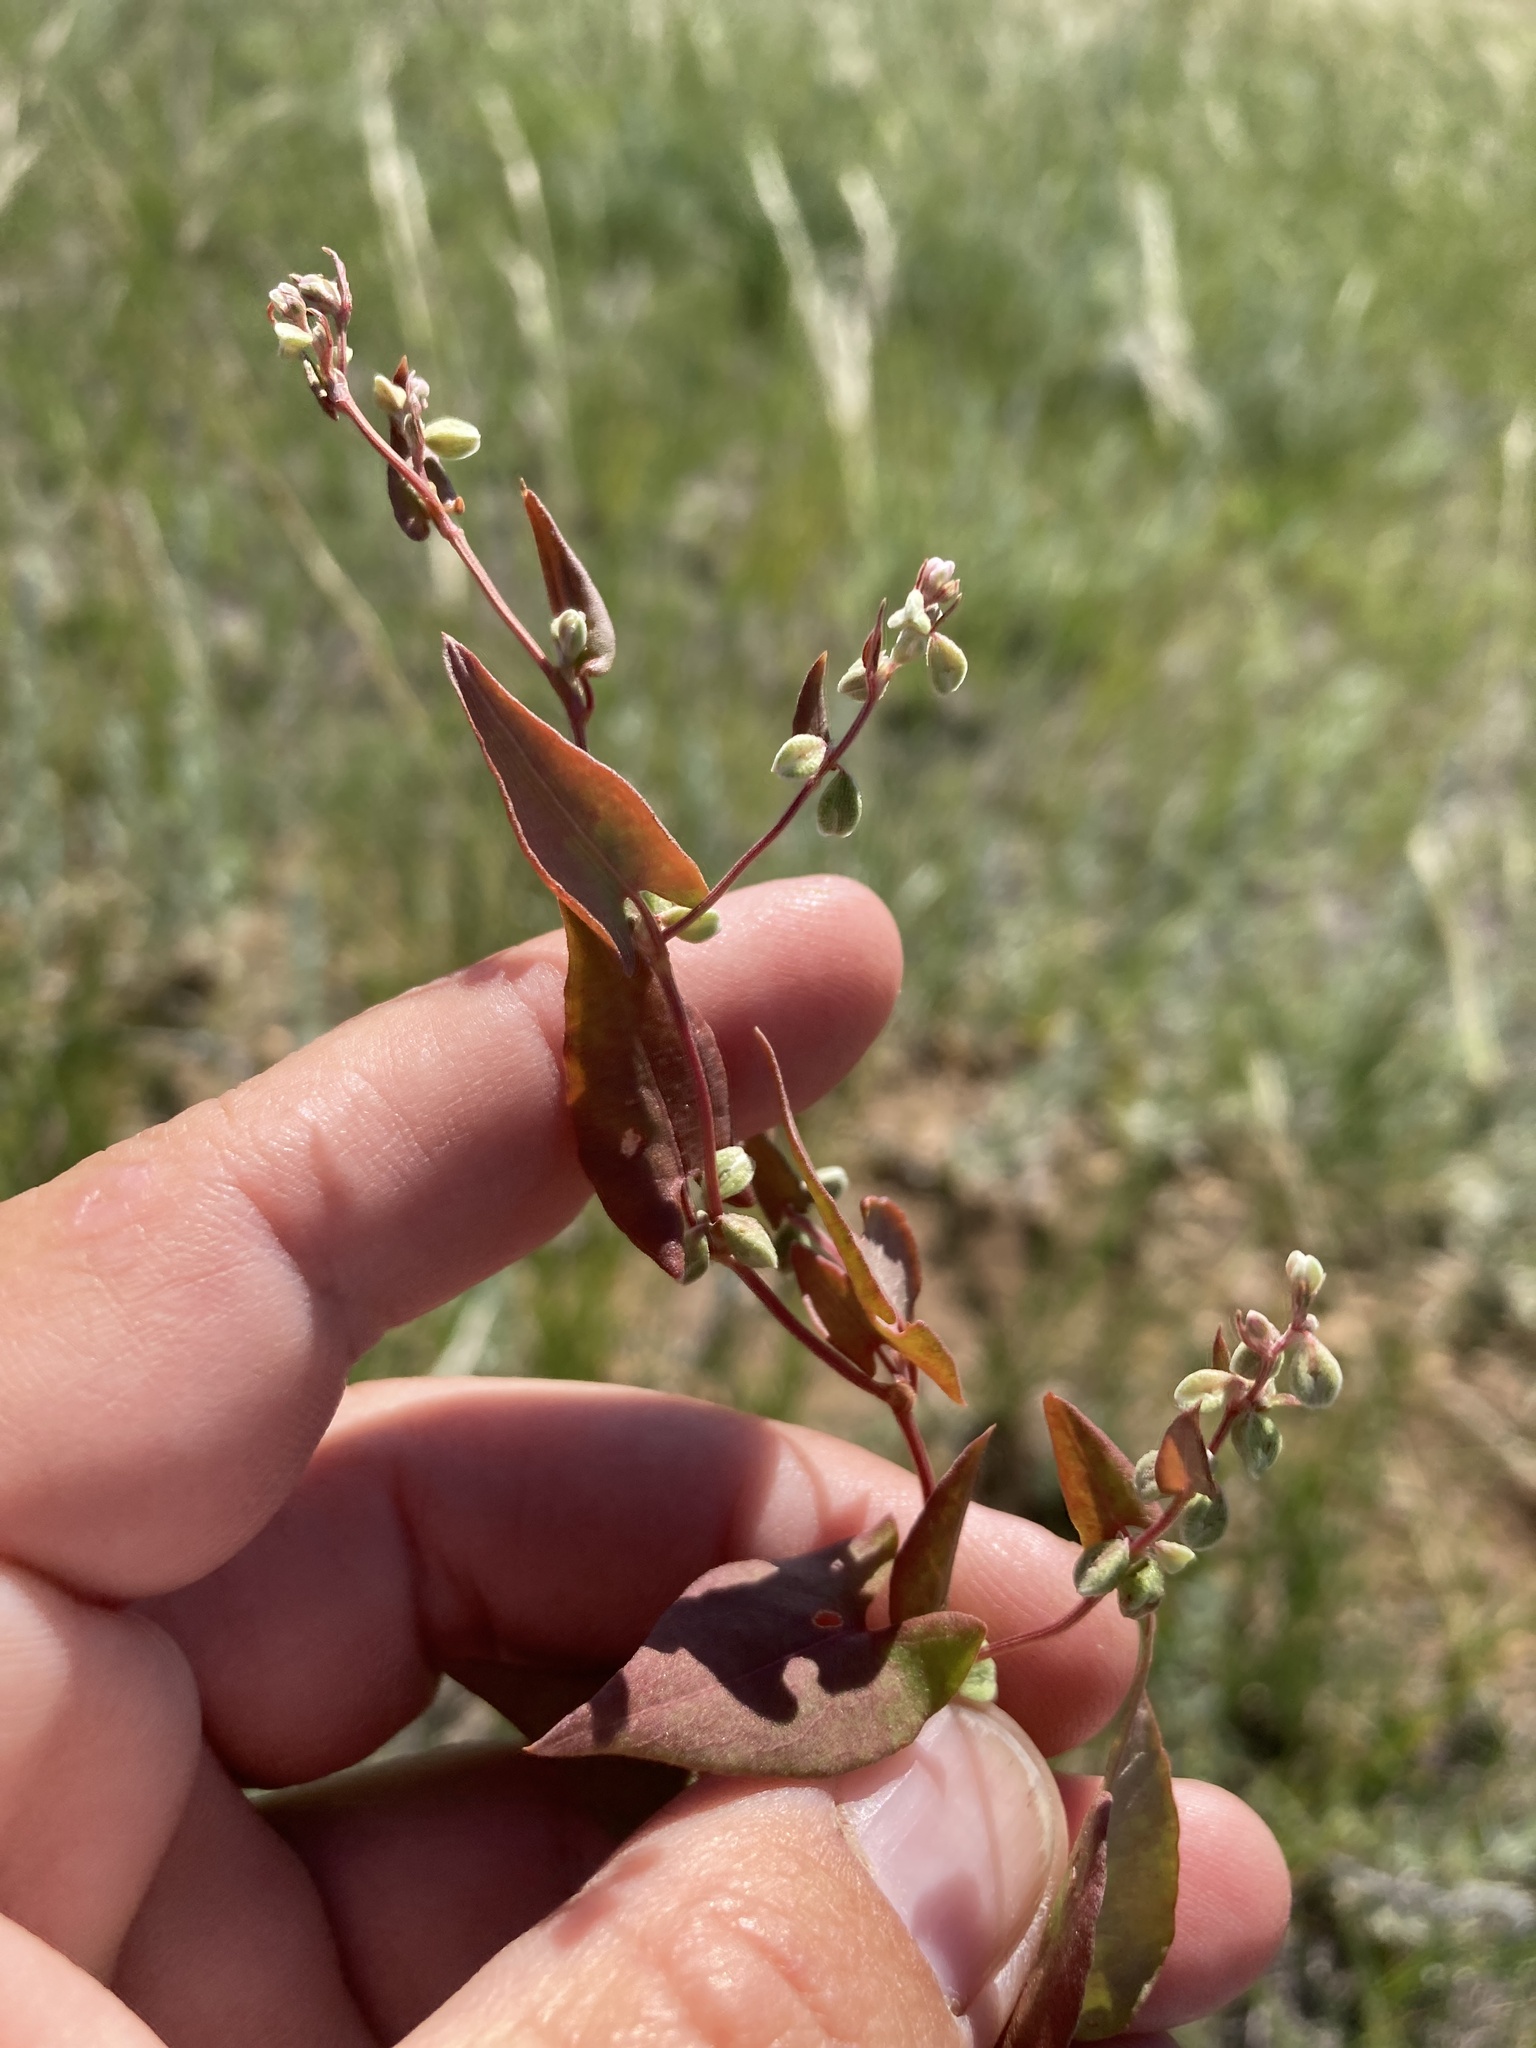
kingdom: Plantae
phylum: Tracheophyta
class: Magnoliopsida
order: Caryophyllales
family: Polygonaceae
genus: Fallopia
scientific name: Fallopia convolvulus
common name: Black bindweed
